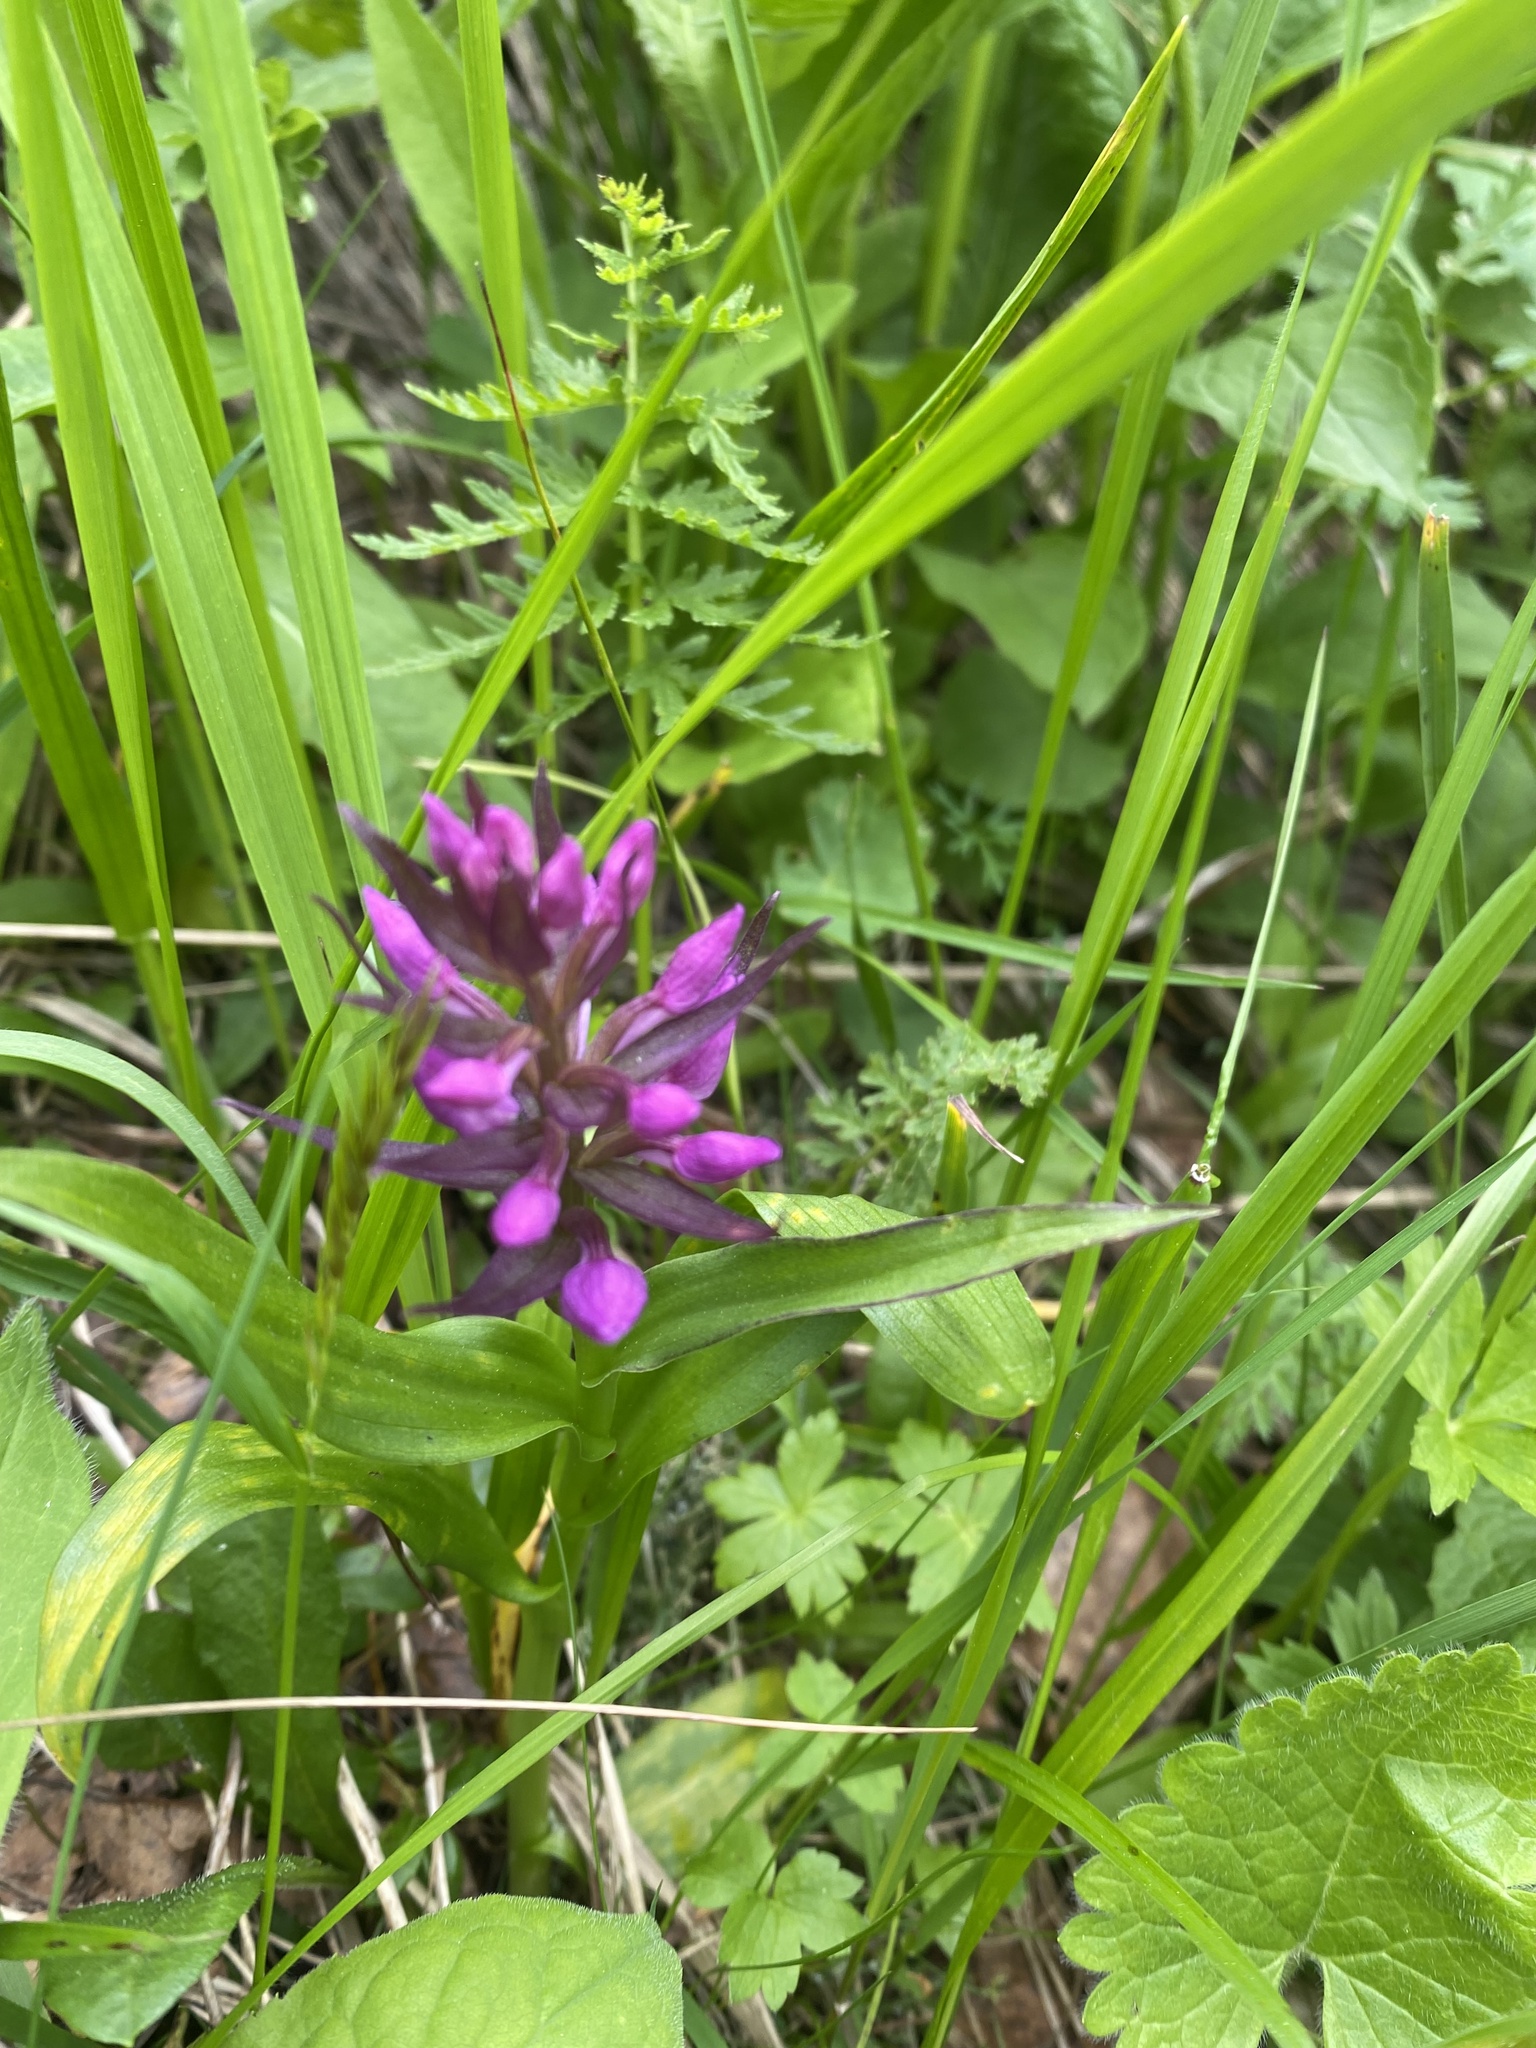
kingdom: Plantae
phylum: Tracheophyta
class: Liliopsida
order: Asparagales
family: Orchidaceae
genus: Dactylorhiza
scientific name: Dactylorhiza euxina
